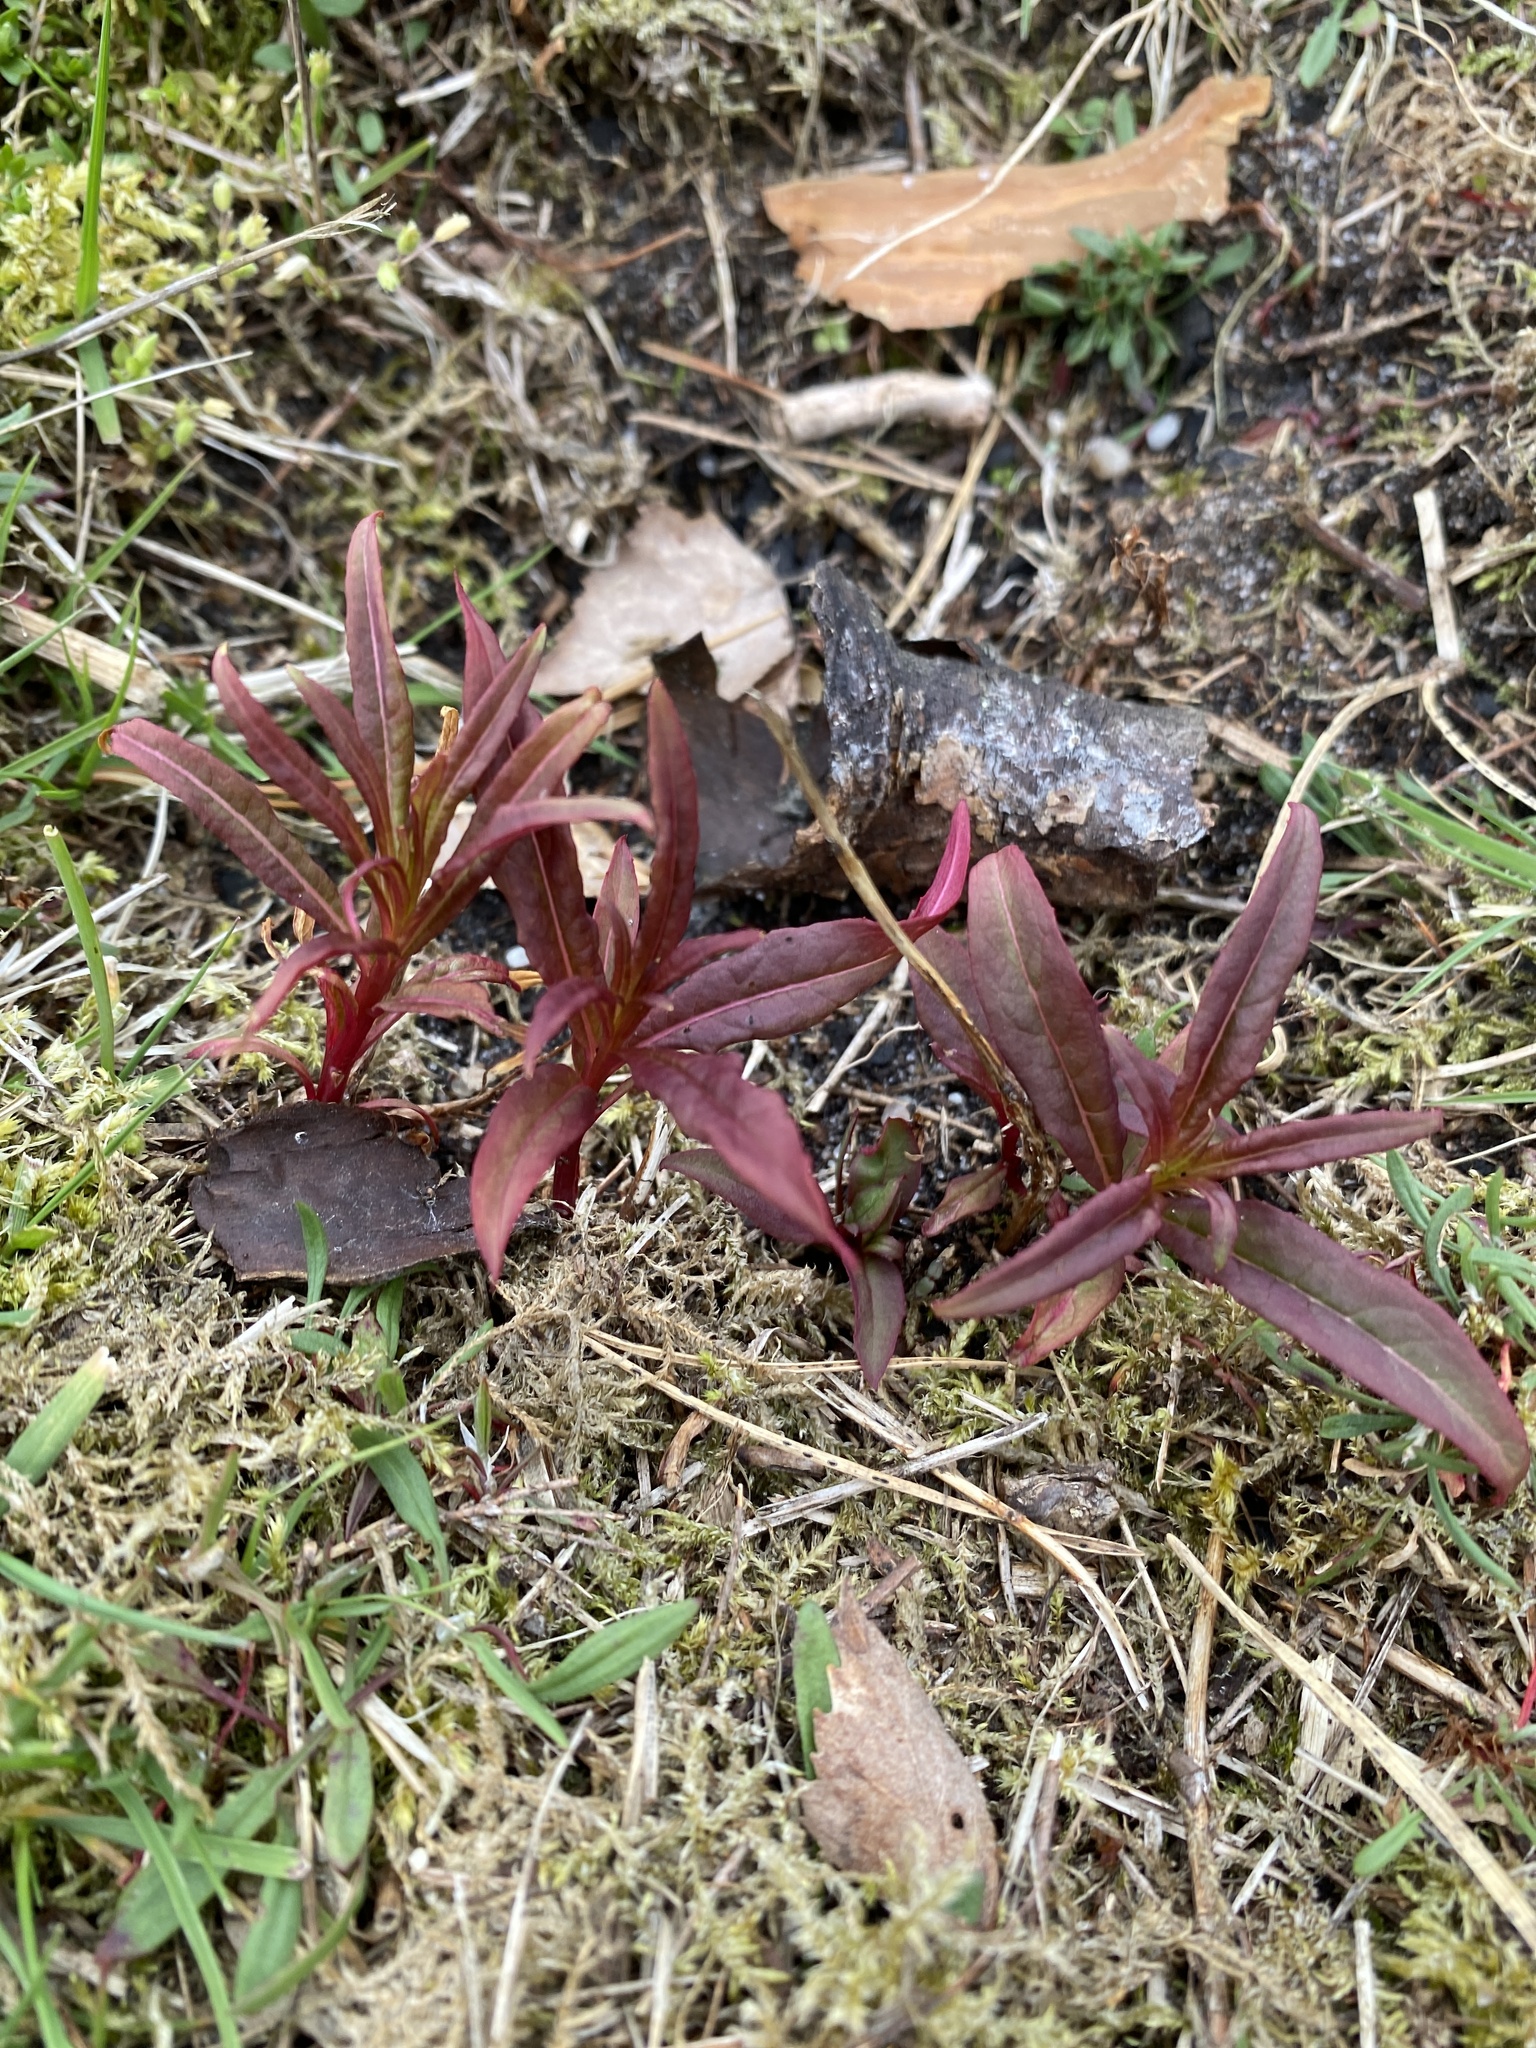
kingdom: Plantae
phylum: Tracheophyta
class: Magnoliopsida
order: Myrtales
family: Onagraceae
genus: Chamaenerion
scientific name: Chamaenerion angustifolium
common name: Fireweed
